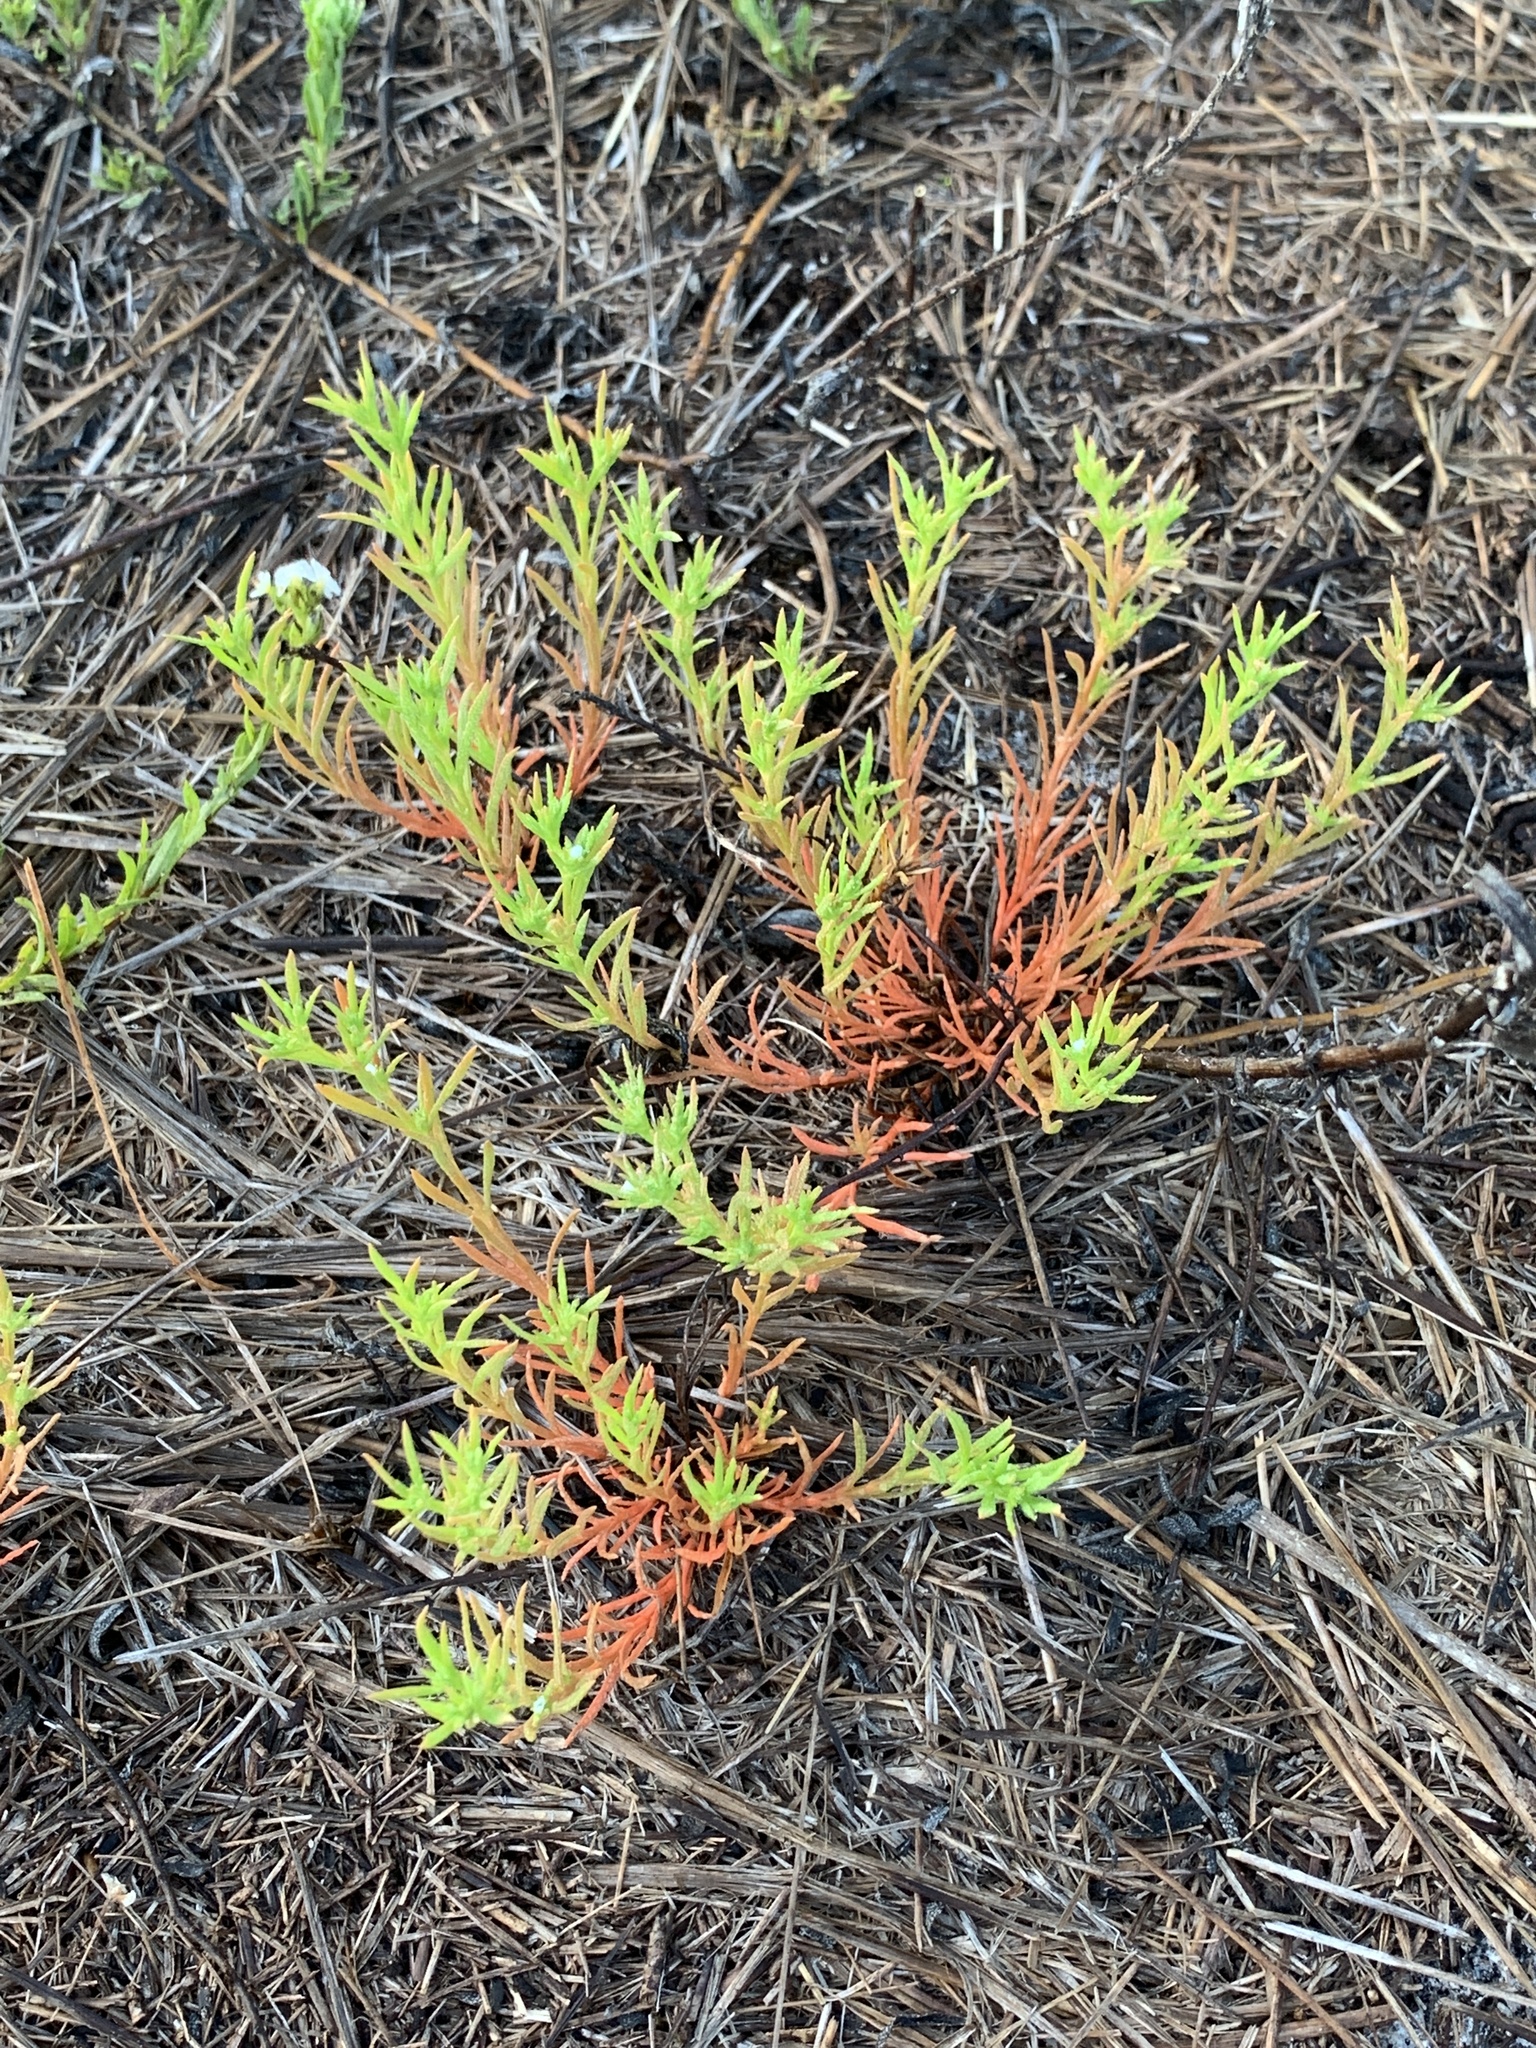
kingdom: Plantae
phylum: Tracheophyta
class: Magnoliopsida
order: Lamiales
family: Tetrachondraceae
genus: Polypremum
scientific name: Polypremum procumbens
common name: Juniper-leaf
